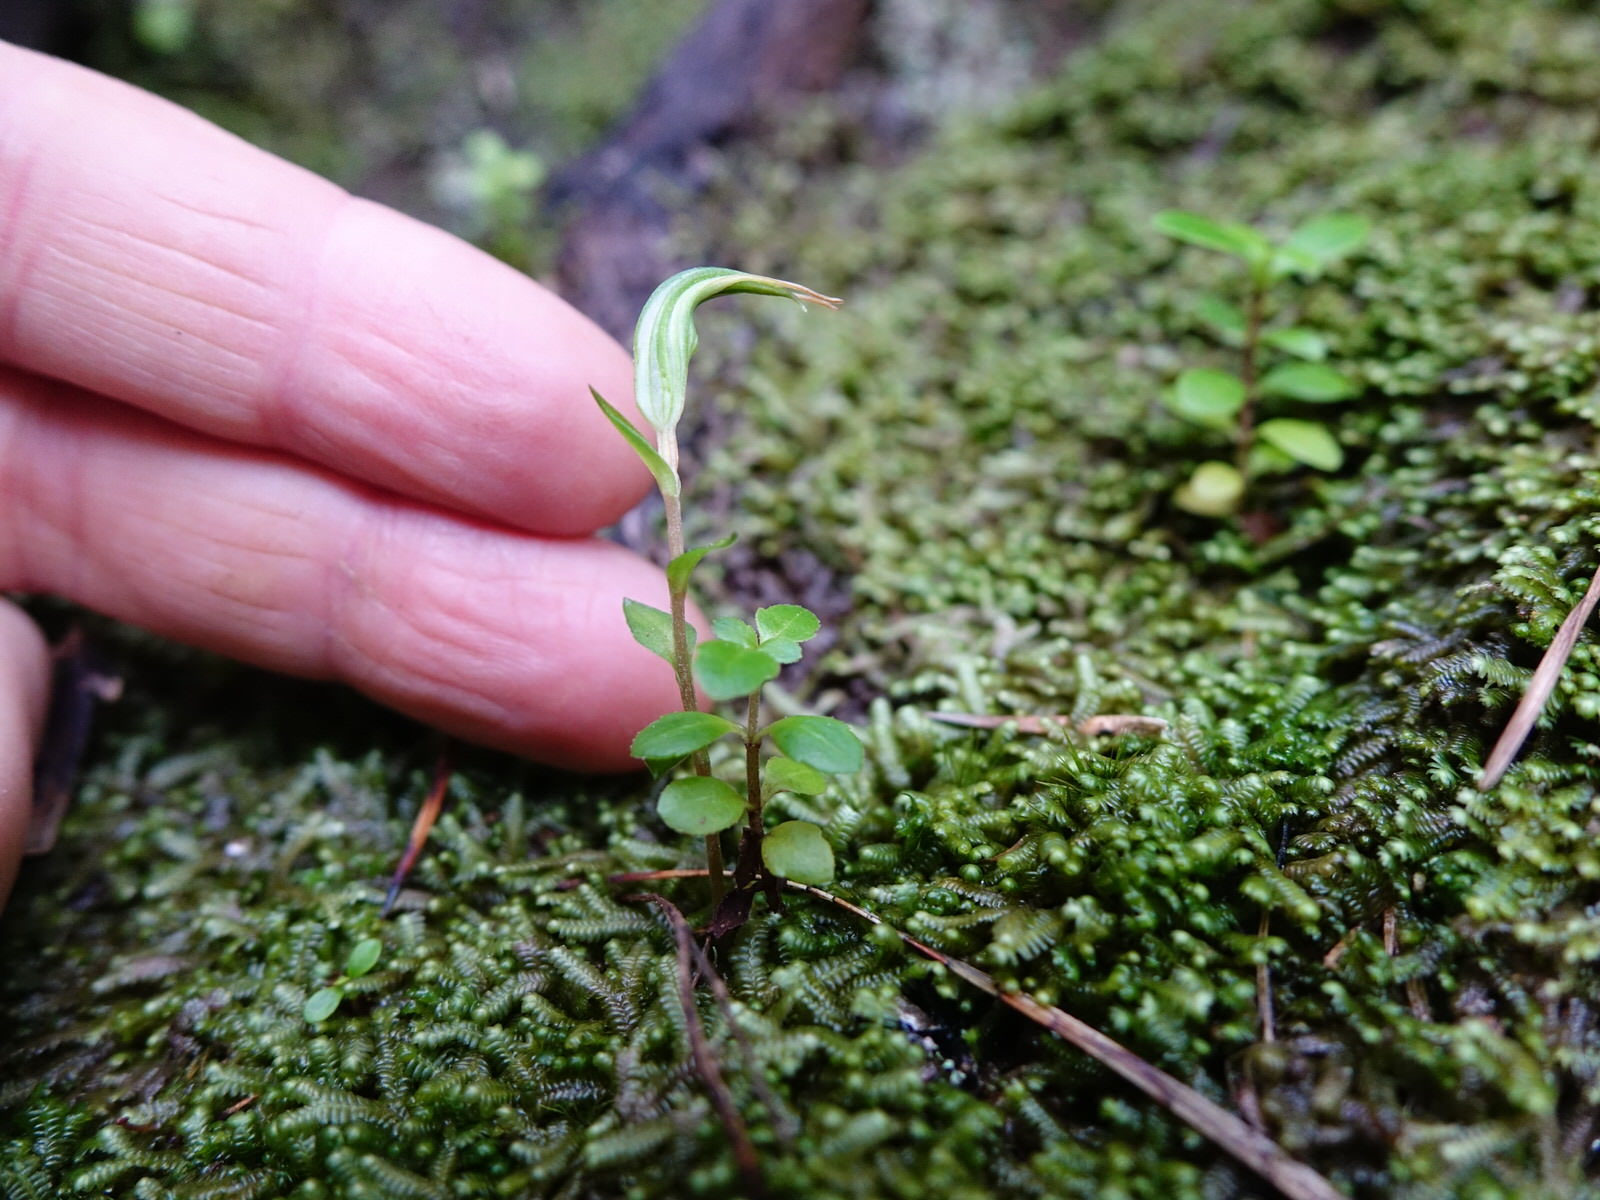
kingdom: Plantae
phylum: Tracheophyta
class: Liliopsida
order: Asparagales
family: Orchidaceae
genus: Pterostylis
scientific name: Pterostylis alobula
